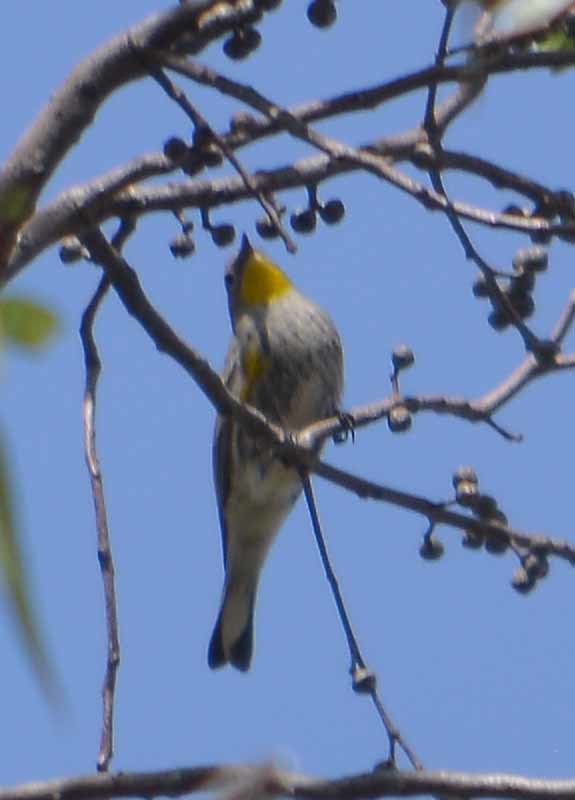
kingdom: Animalia
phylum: Chordata
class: Aves
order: Passeriformes
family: Parulidae
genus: Setophaga
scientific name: Setophaga coronata
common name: Myrtle warbler
